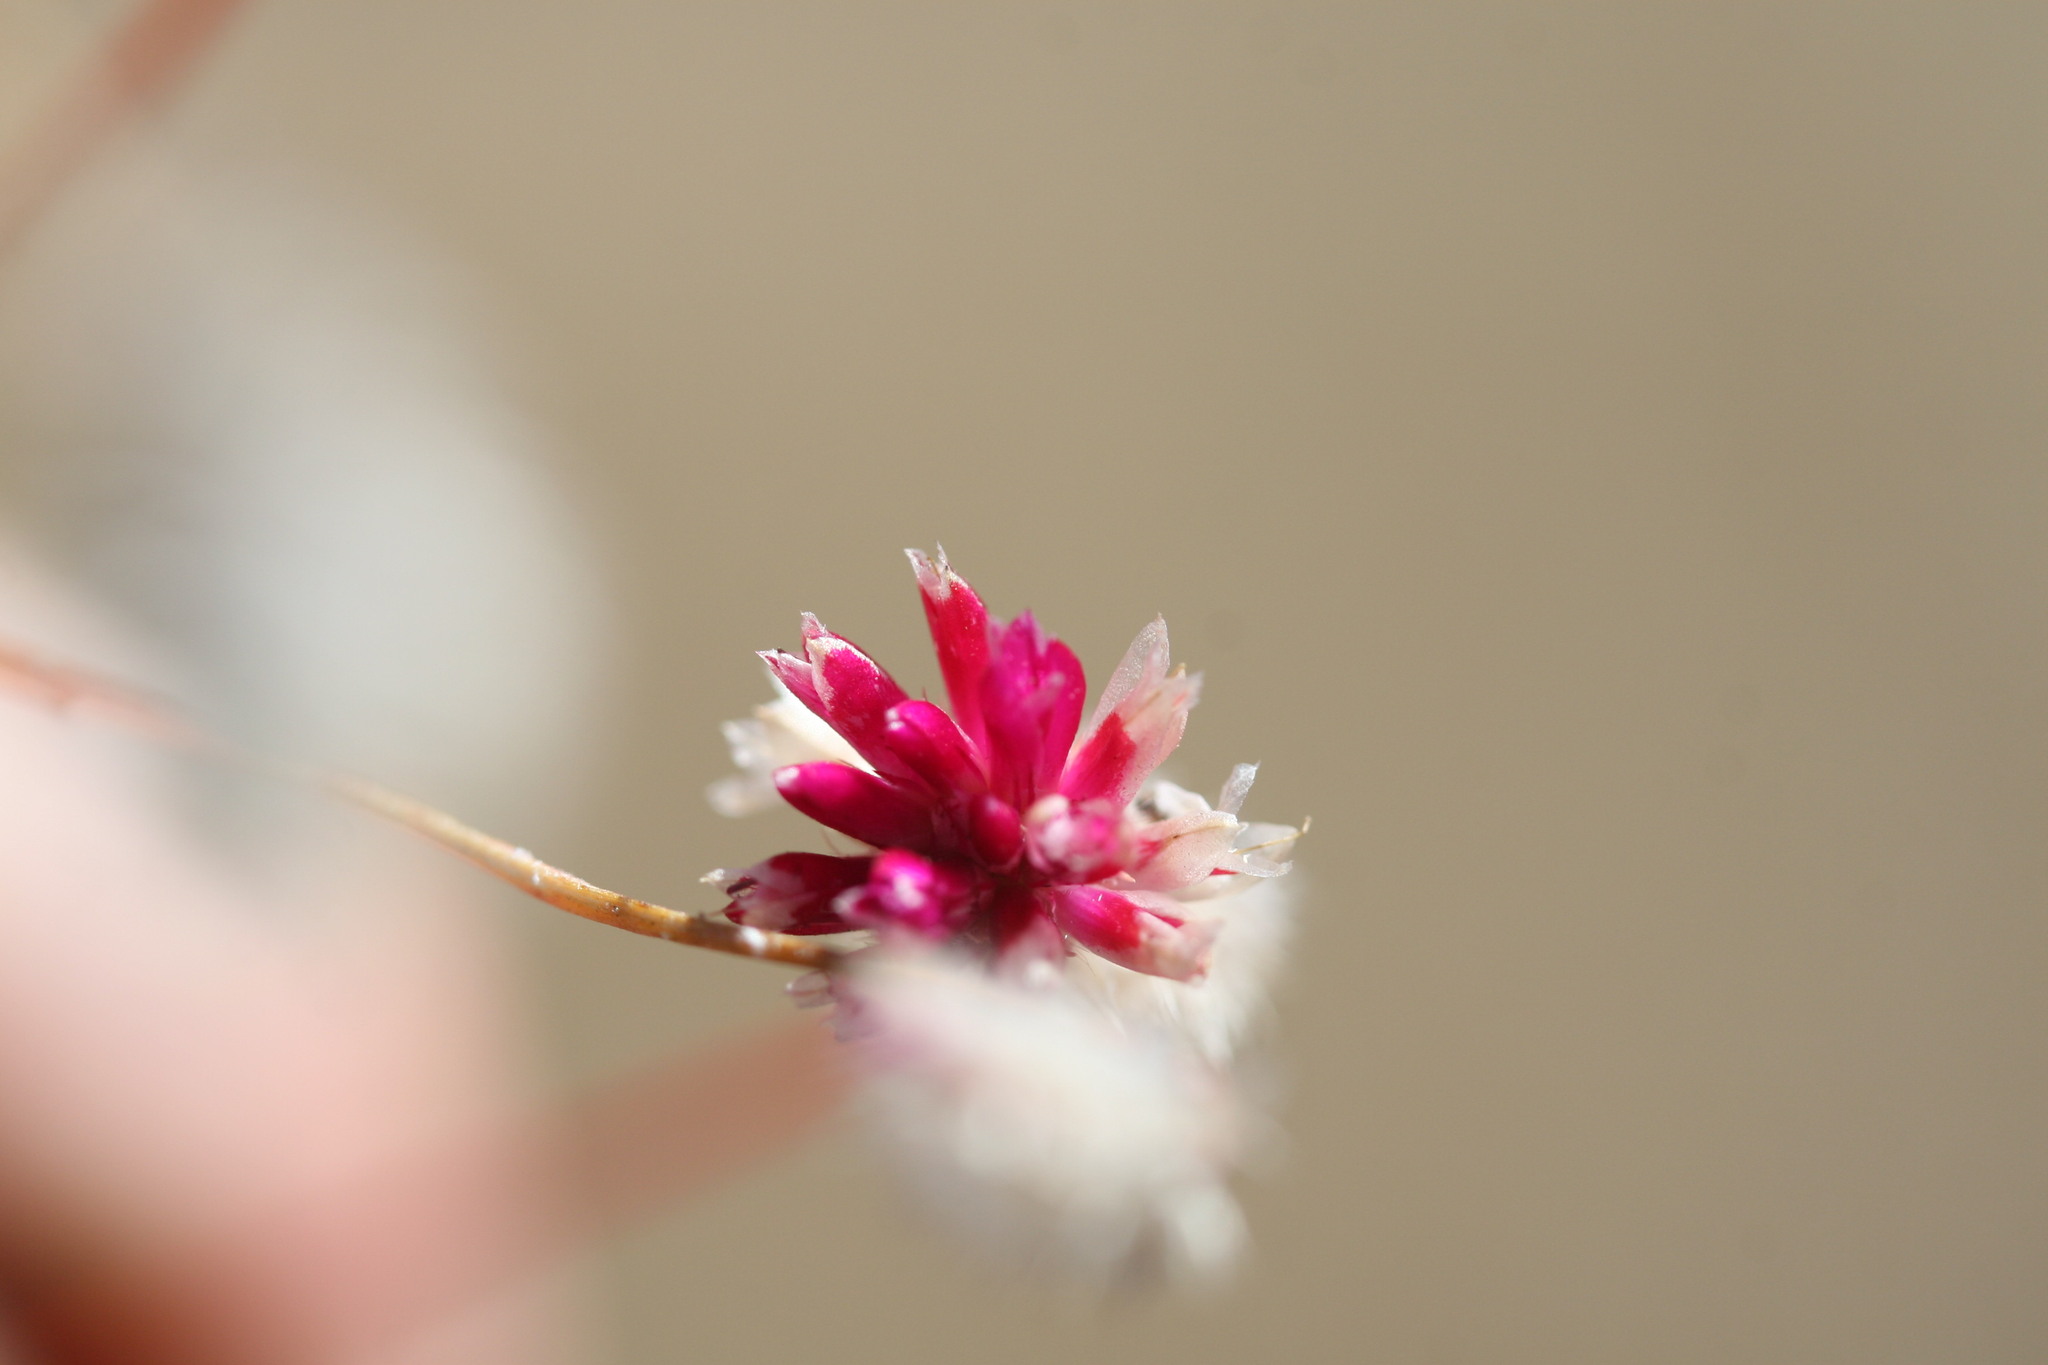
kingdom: Plantae
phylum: Tracheophyta
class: Magnoliopsida
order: Caryophyllales
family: Amaranthaceae
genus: Ptilotus
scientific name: Ptilotus spicatus
